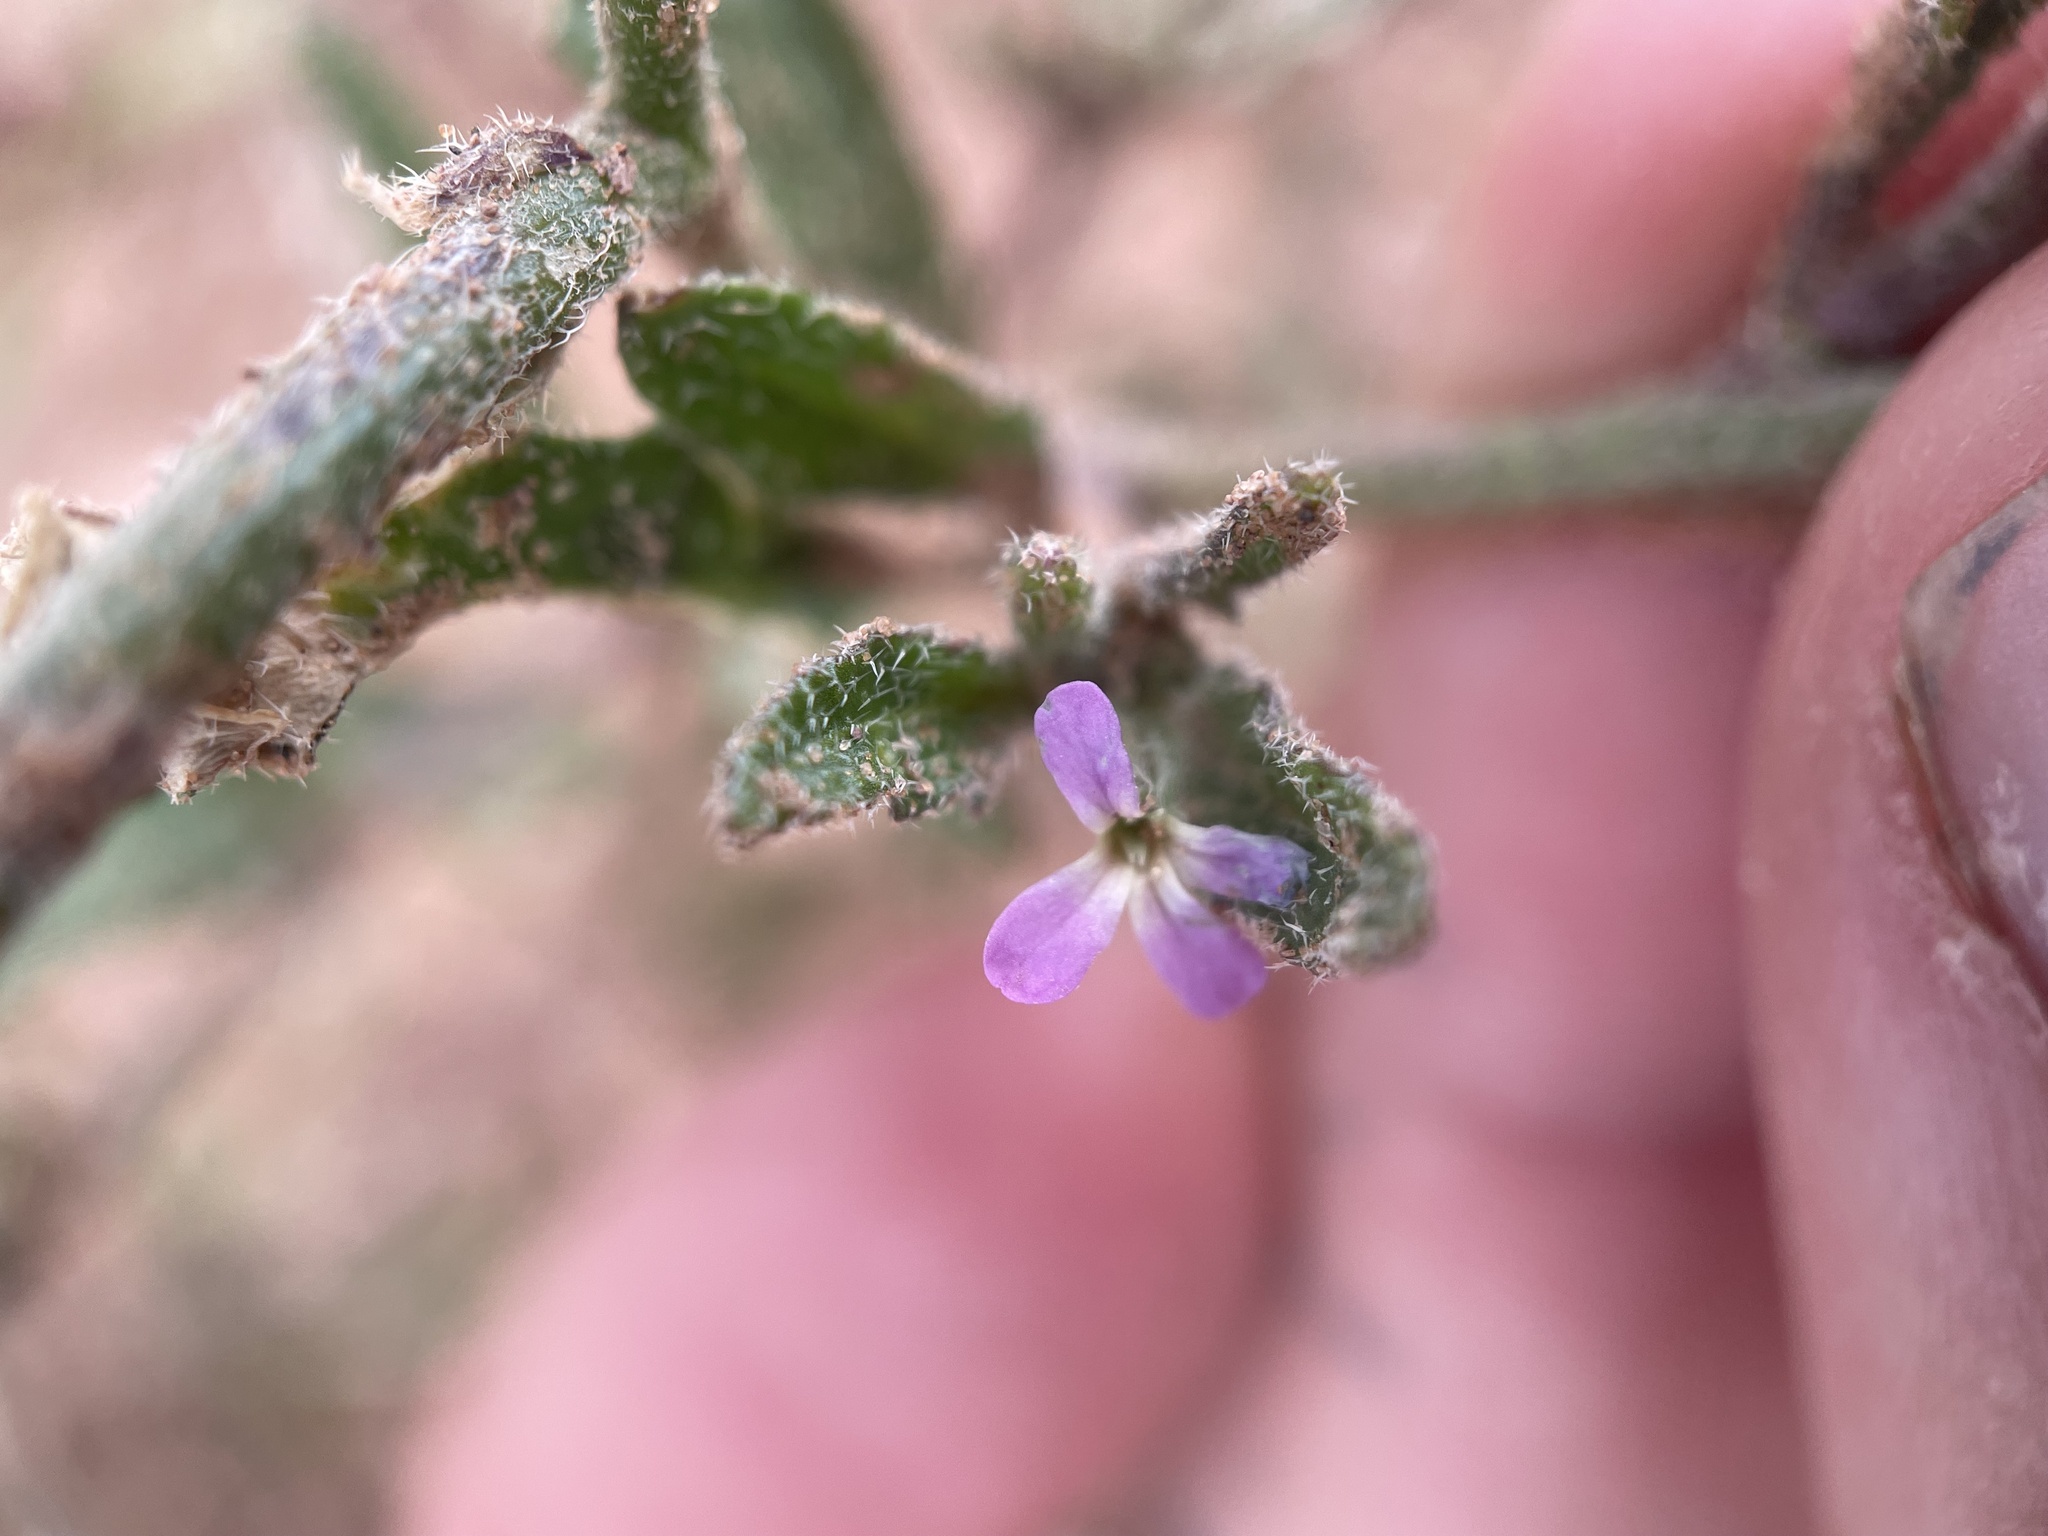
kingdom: Plantae
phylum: Tracheophyta
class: Magnoliopsida
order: Brassicales
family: Brassicaceae
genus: Strigosella
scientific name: Strigosella africana
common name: African mustard
